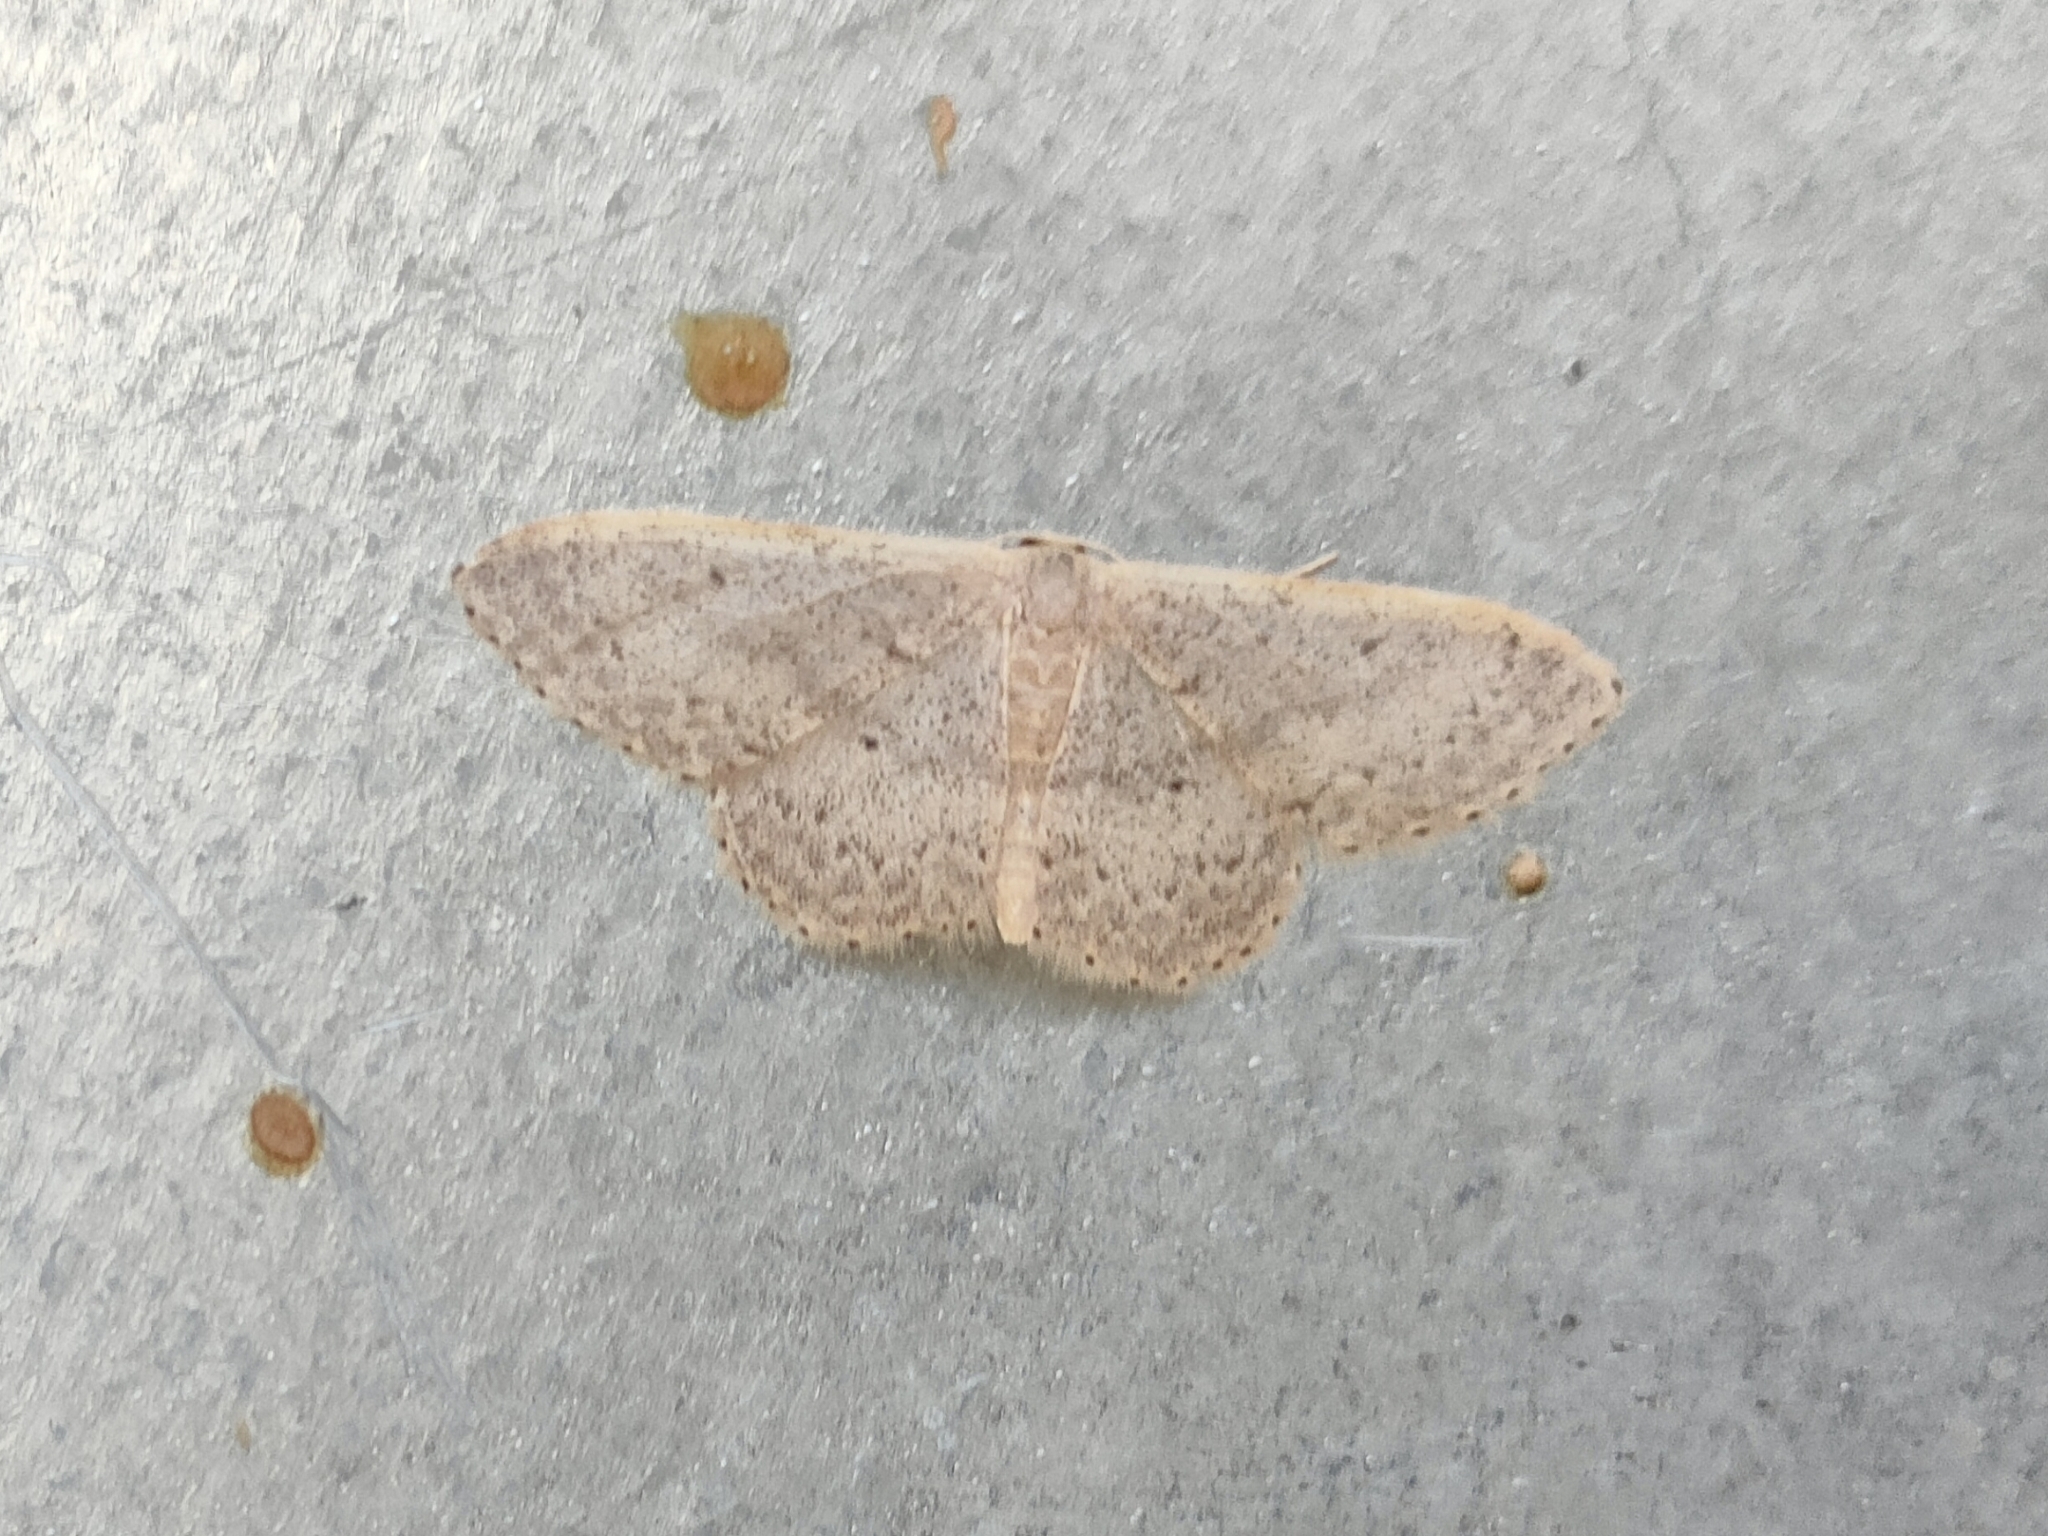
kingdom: Animalia
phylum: Arthropoda
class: Insecta
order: Lepidoptera
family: Geometridae
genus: Idaea
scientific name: Idaea eugeniata
